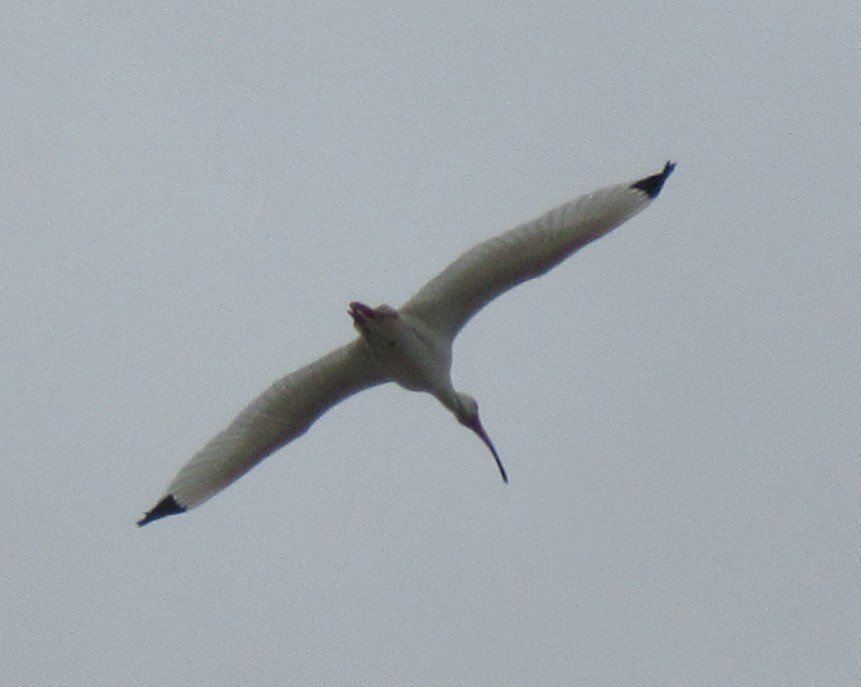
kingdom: Animalia
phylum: Chordata
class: Aves
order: Pelecaniformes
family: Threskiornithidae
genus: Eudocimus
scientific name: Eudocimus albus
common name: White ibis
